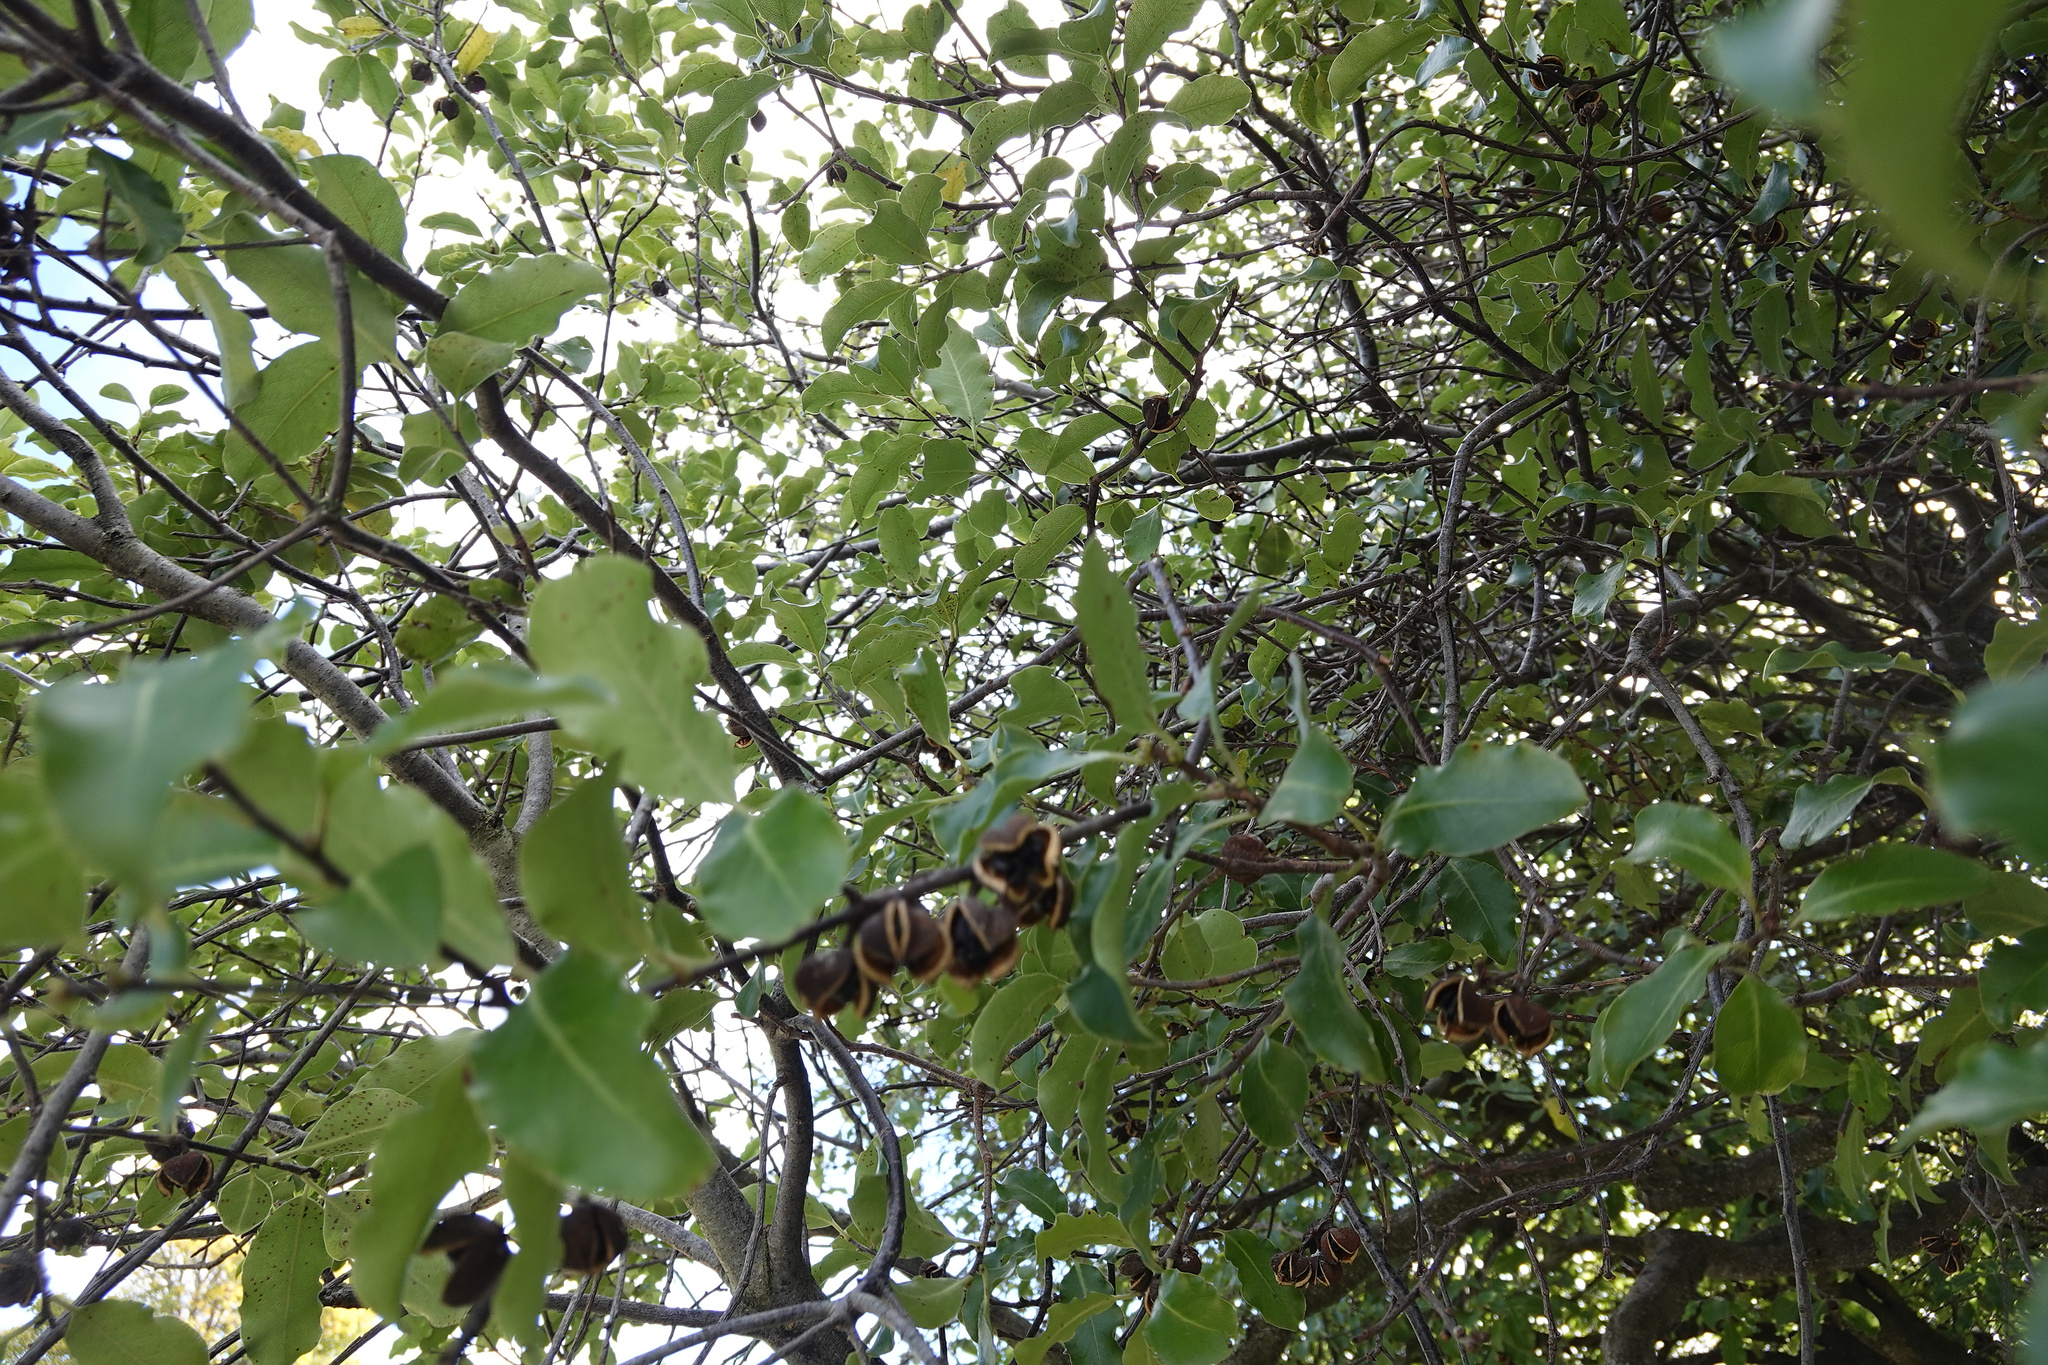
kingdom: Plantae
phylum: Tracheophyta
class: Magnoliopsida
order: Apiales
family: Pittosporaceae
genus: Pittosporum
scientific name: Pittosporum tenuifolium
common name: Kohuhu
